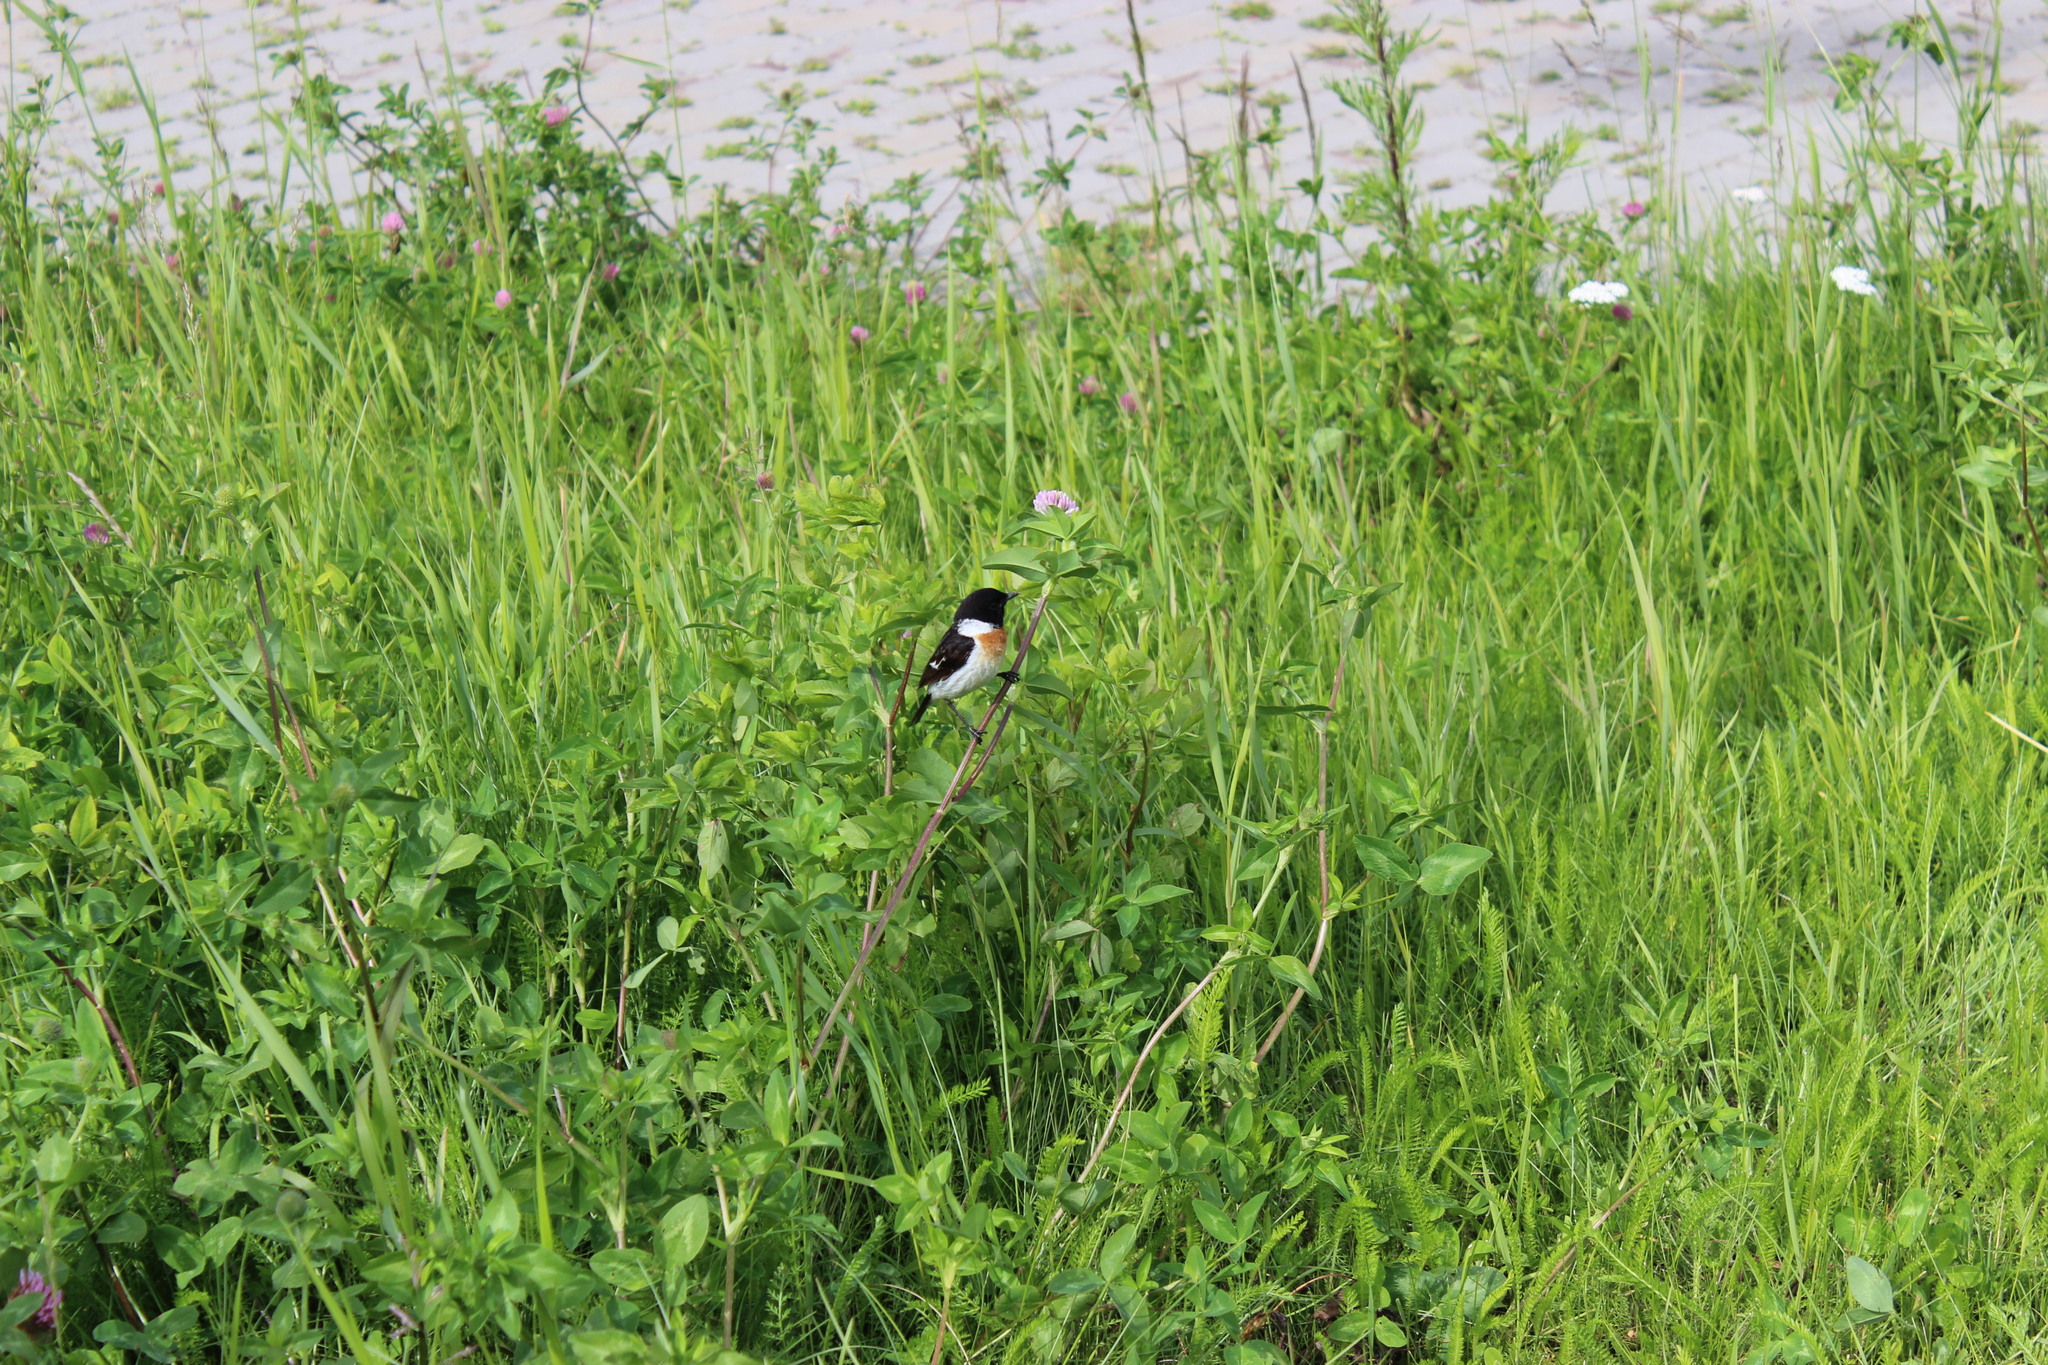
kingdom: Animalia
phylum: Chordata
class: Aves
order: Passeriformes
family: Muscicapidae
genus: Saxicola
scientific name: Saxicola maurus
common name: Siberian stonechat
